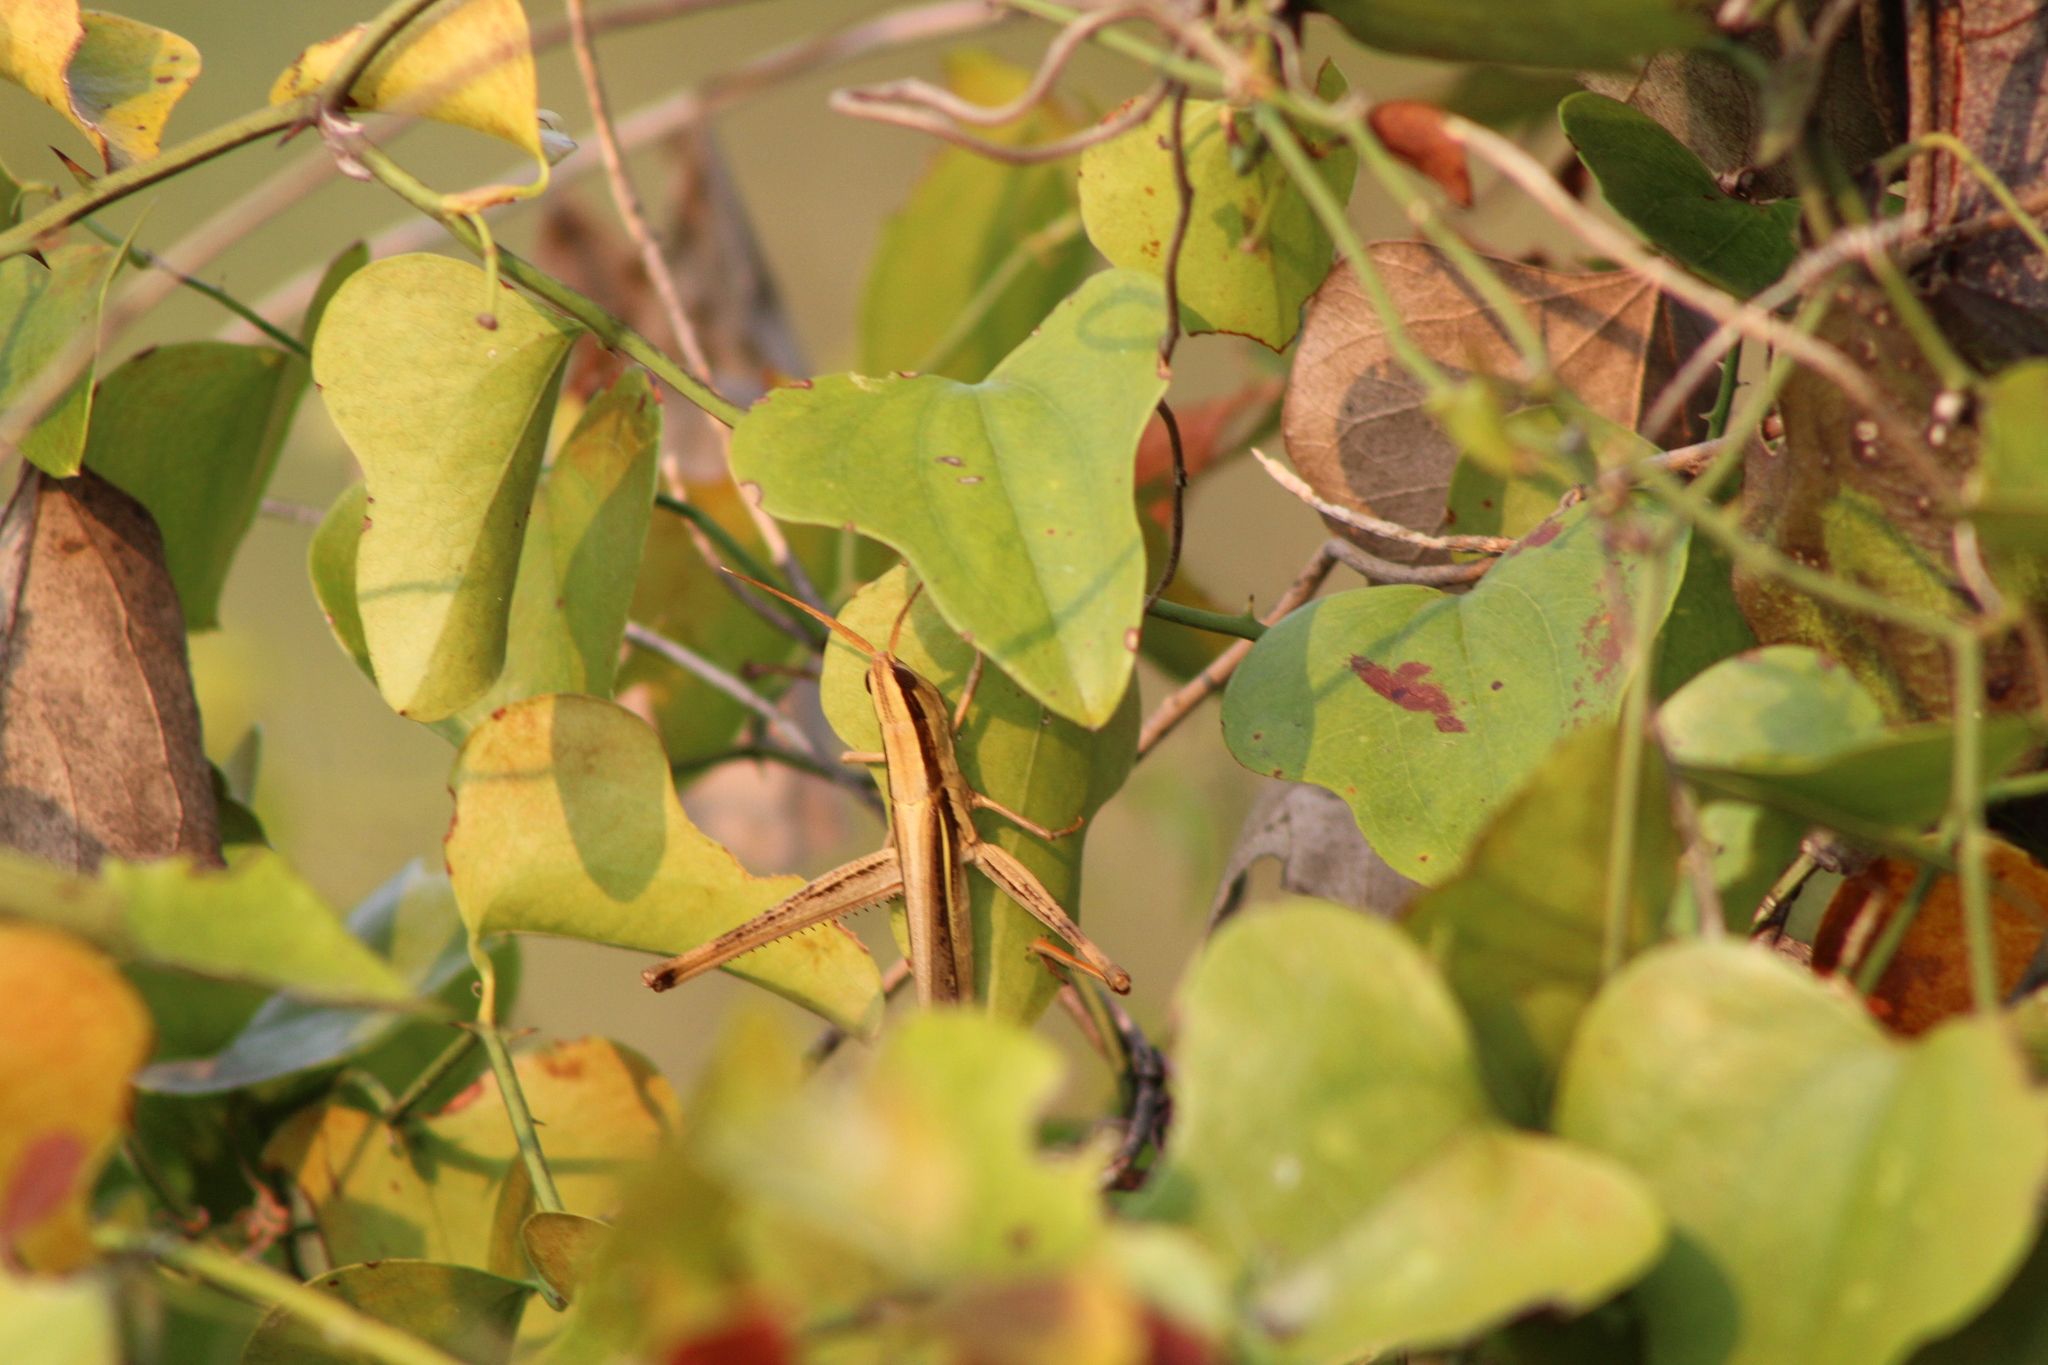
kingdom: Animalia
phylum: Arthropoda
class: Insecta
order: Orthoptera
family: Acrididae
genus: Mermiria
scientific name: Mermiria bivittata
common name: Two-striped mermiria grasshopper
